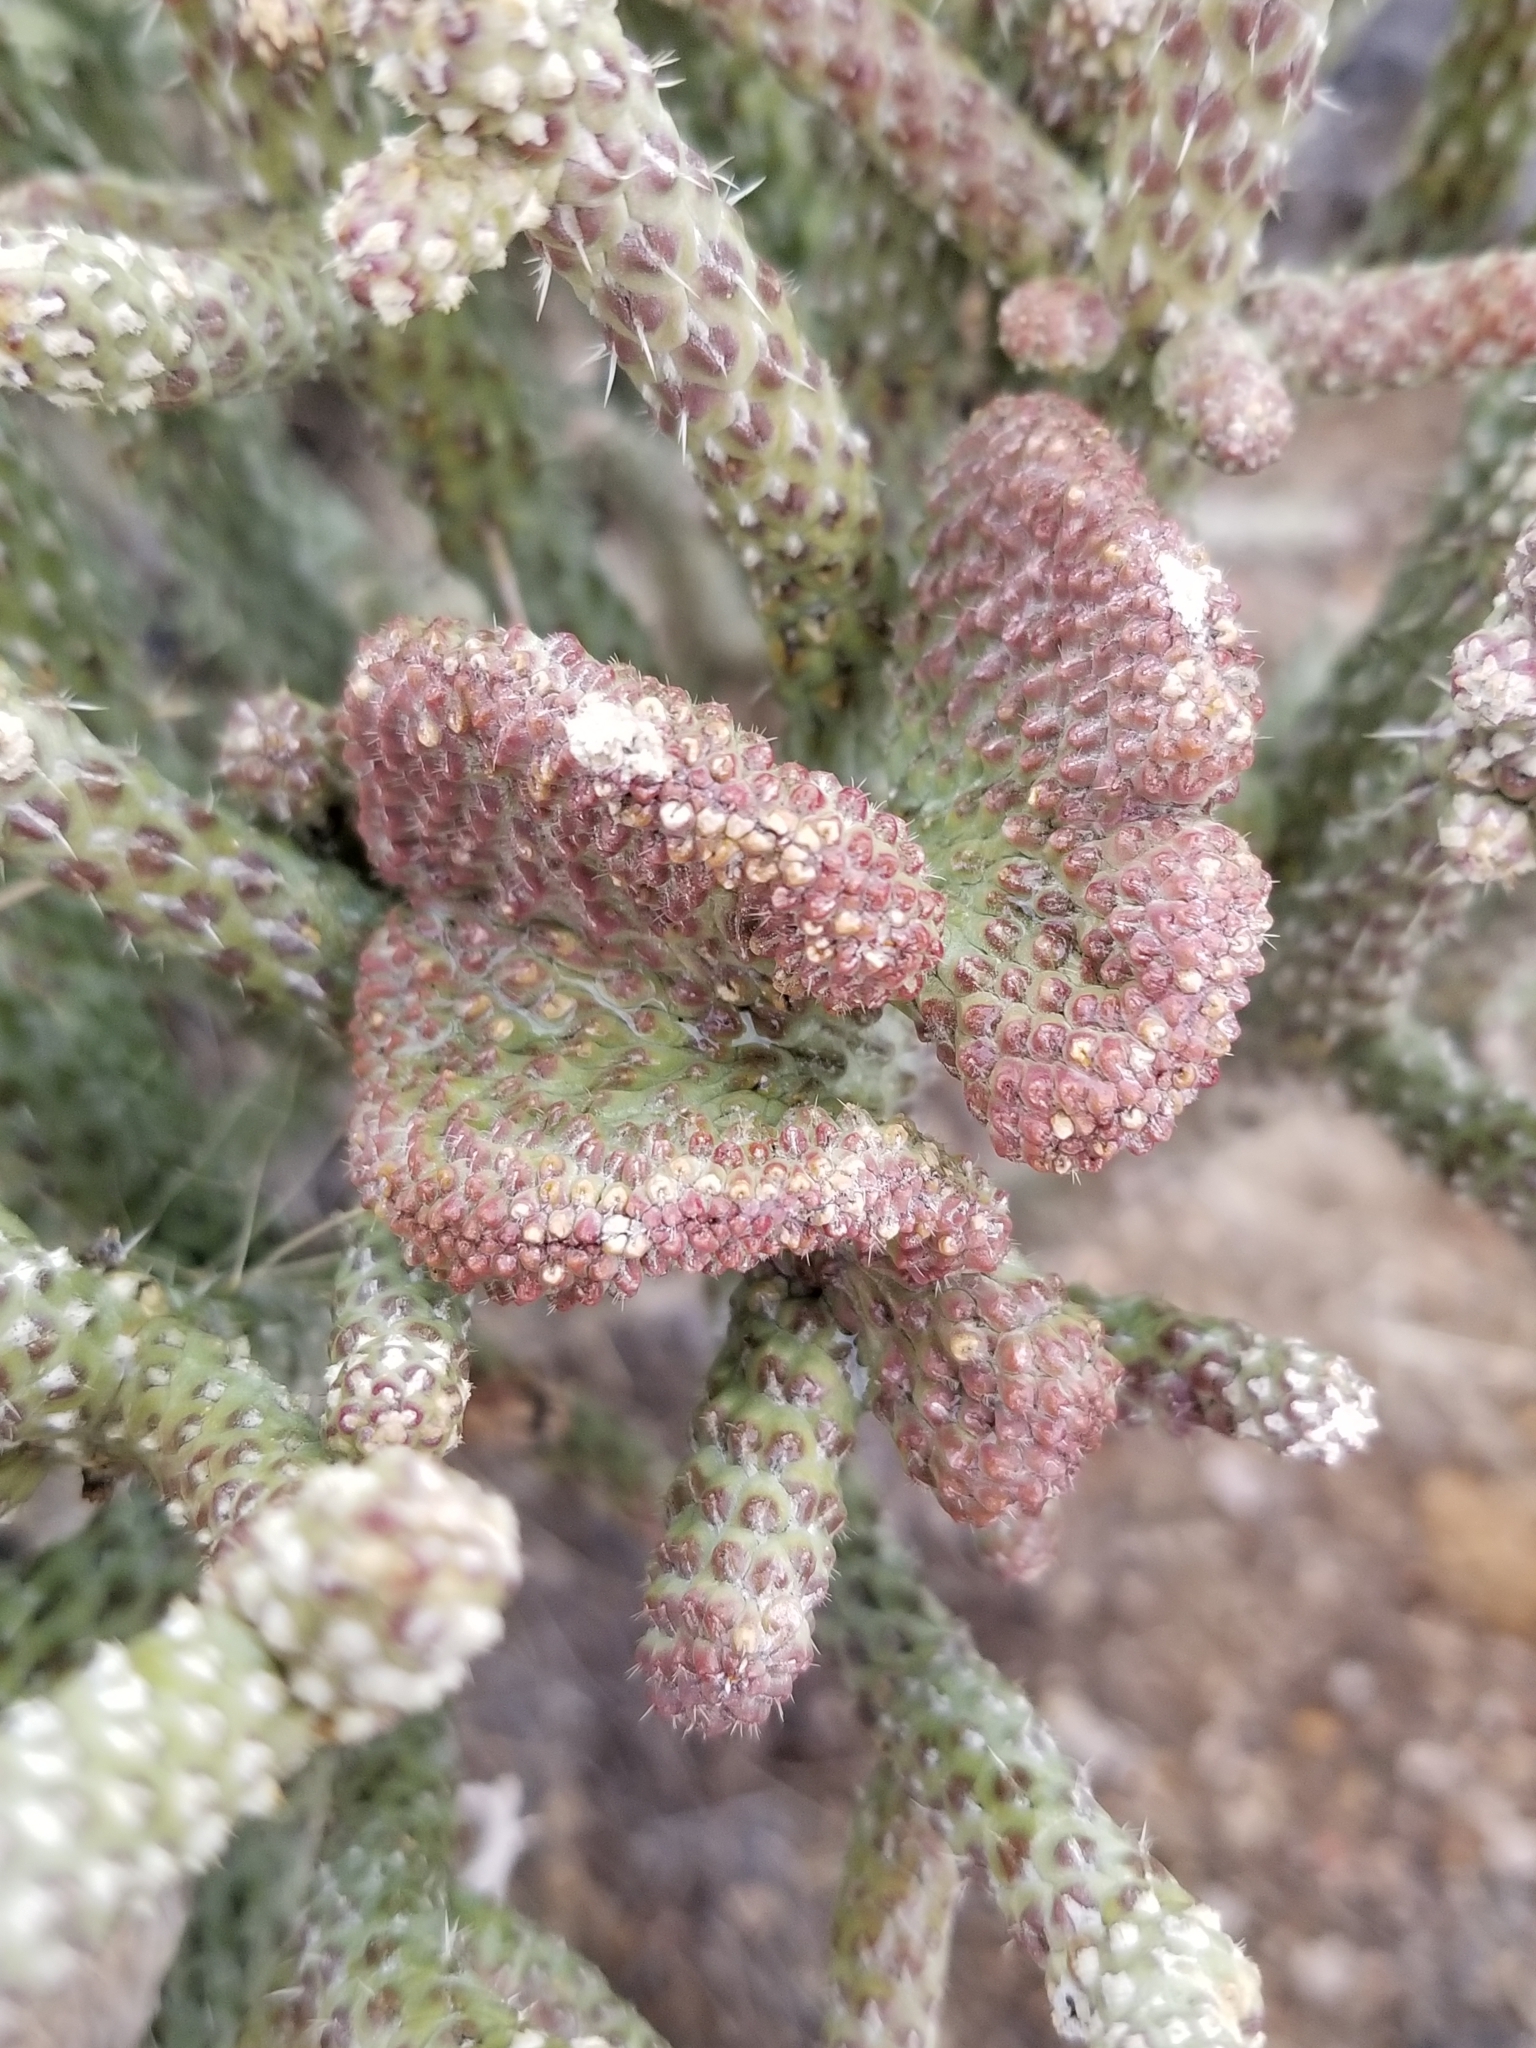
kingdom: Plantae
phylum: Tracheophyta
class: Magnoliopsida
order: Caryophyllales
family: Cactaceae
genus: Cylindropuntia
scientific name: Cylindropuntia ramosissima
